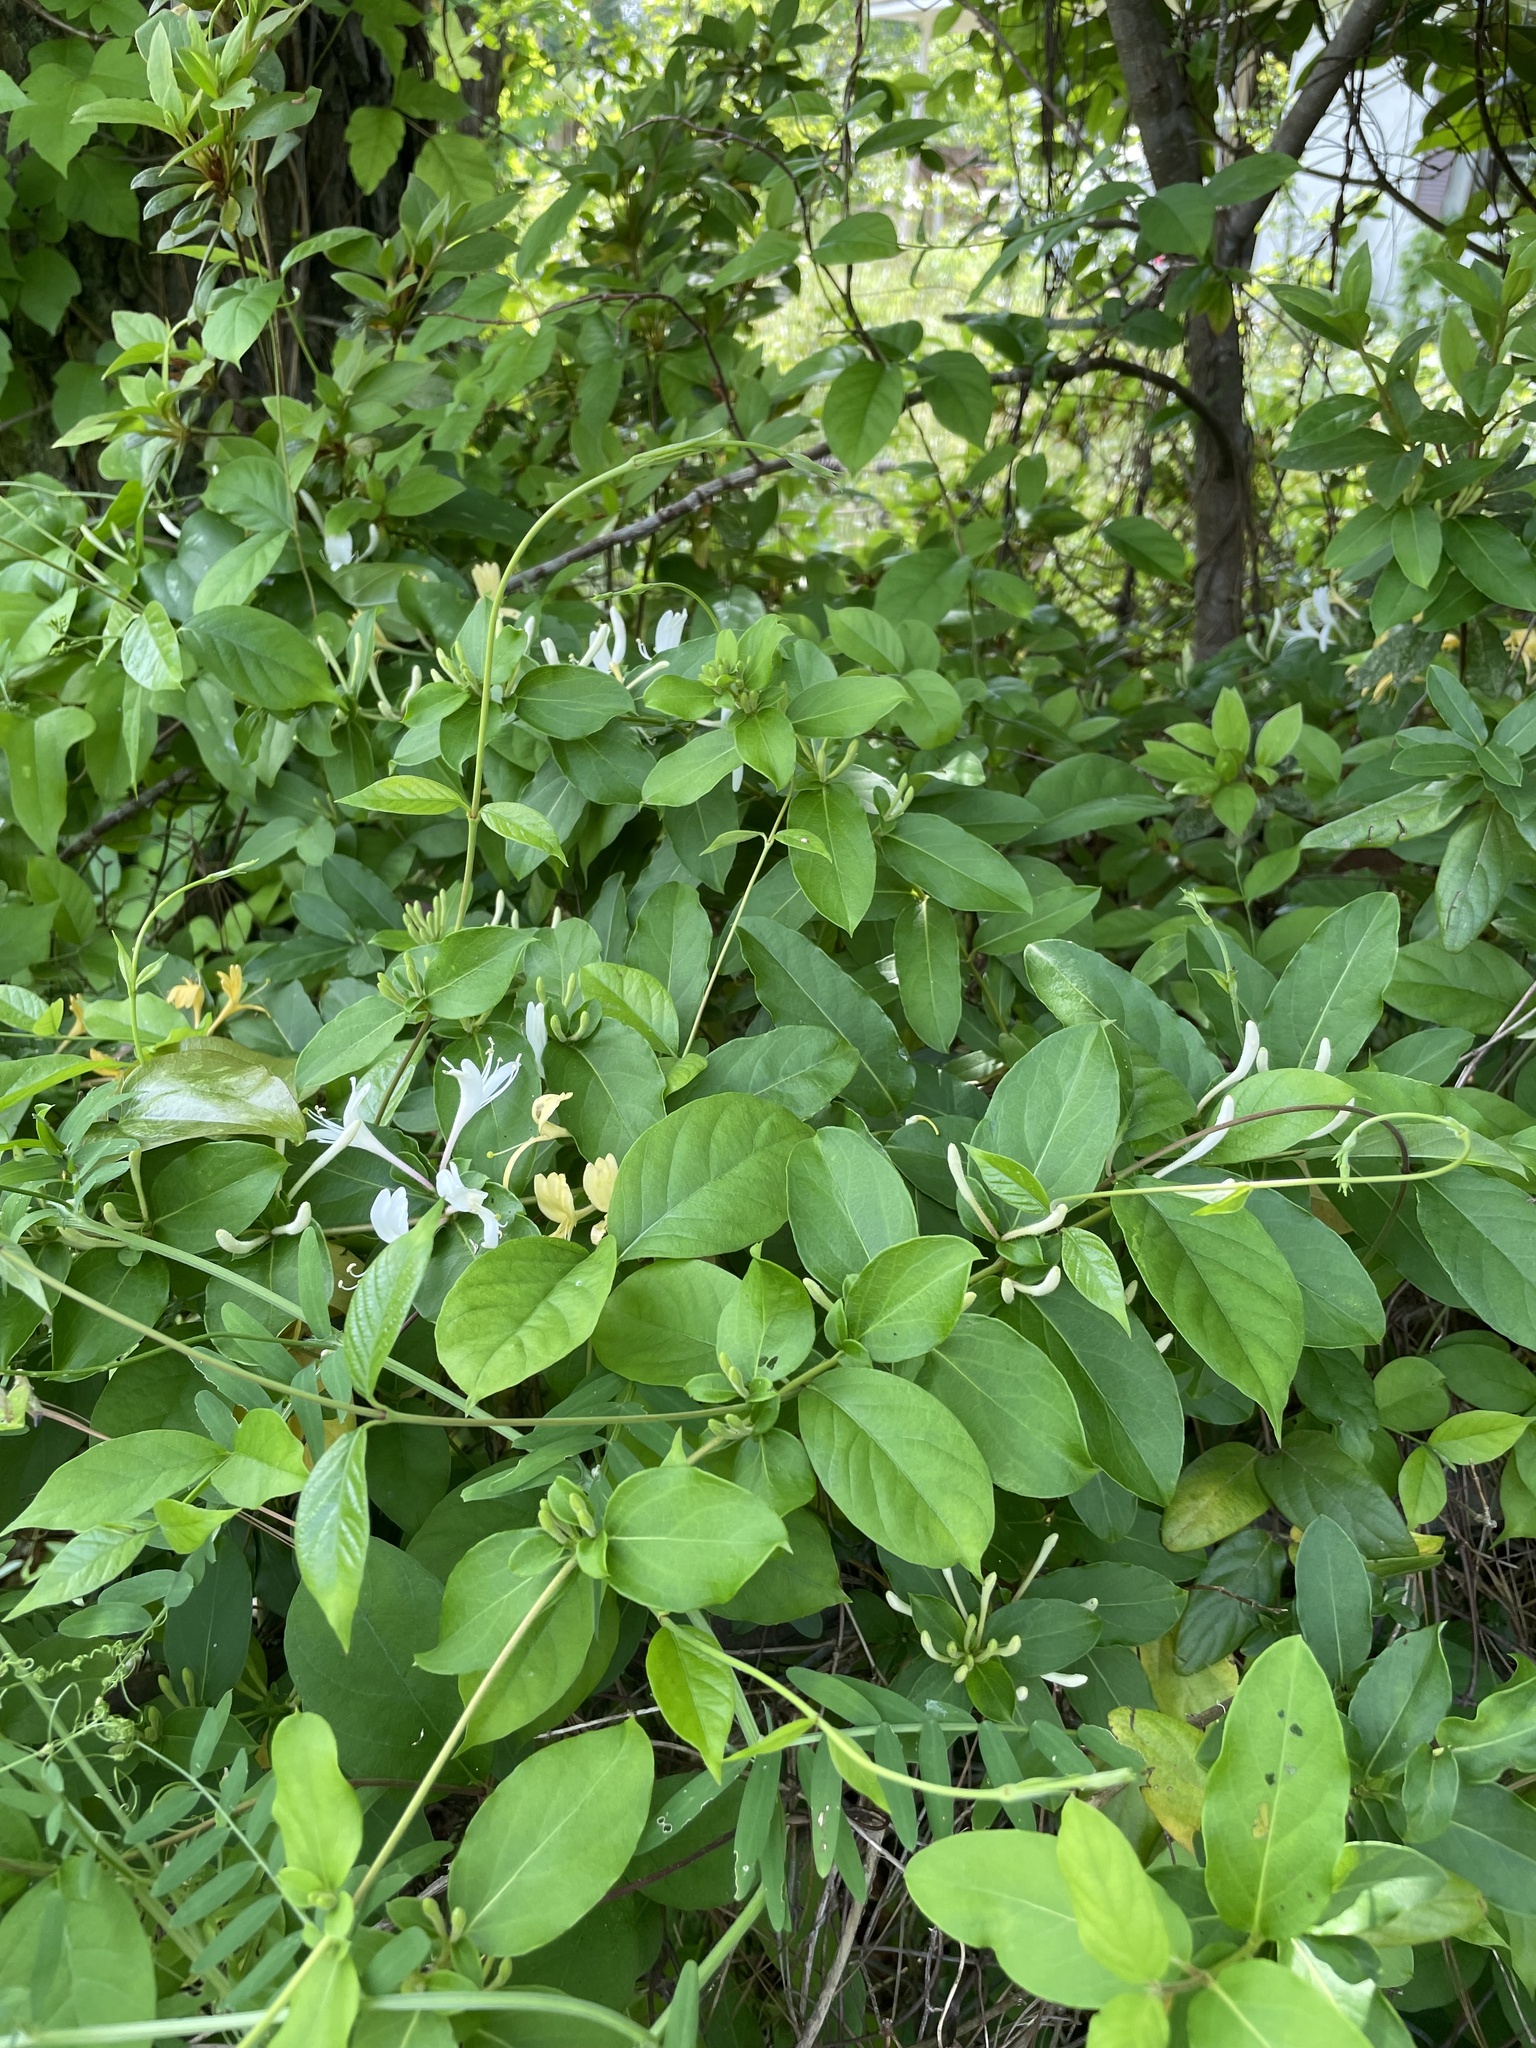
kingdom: Plantae
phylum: Tracheophyta
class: Magnoliopsida
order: Dipsacales
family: Caprifoliaceae
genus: Lonicera
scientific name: Lonicera japonica
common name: Japanese honeysuckle
